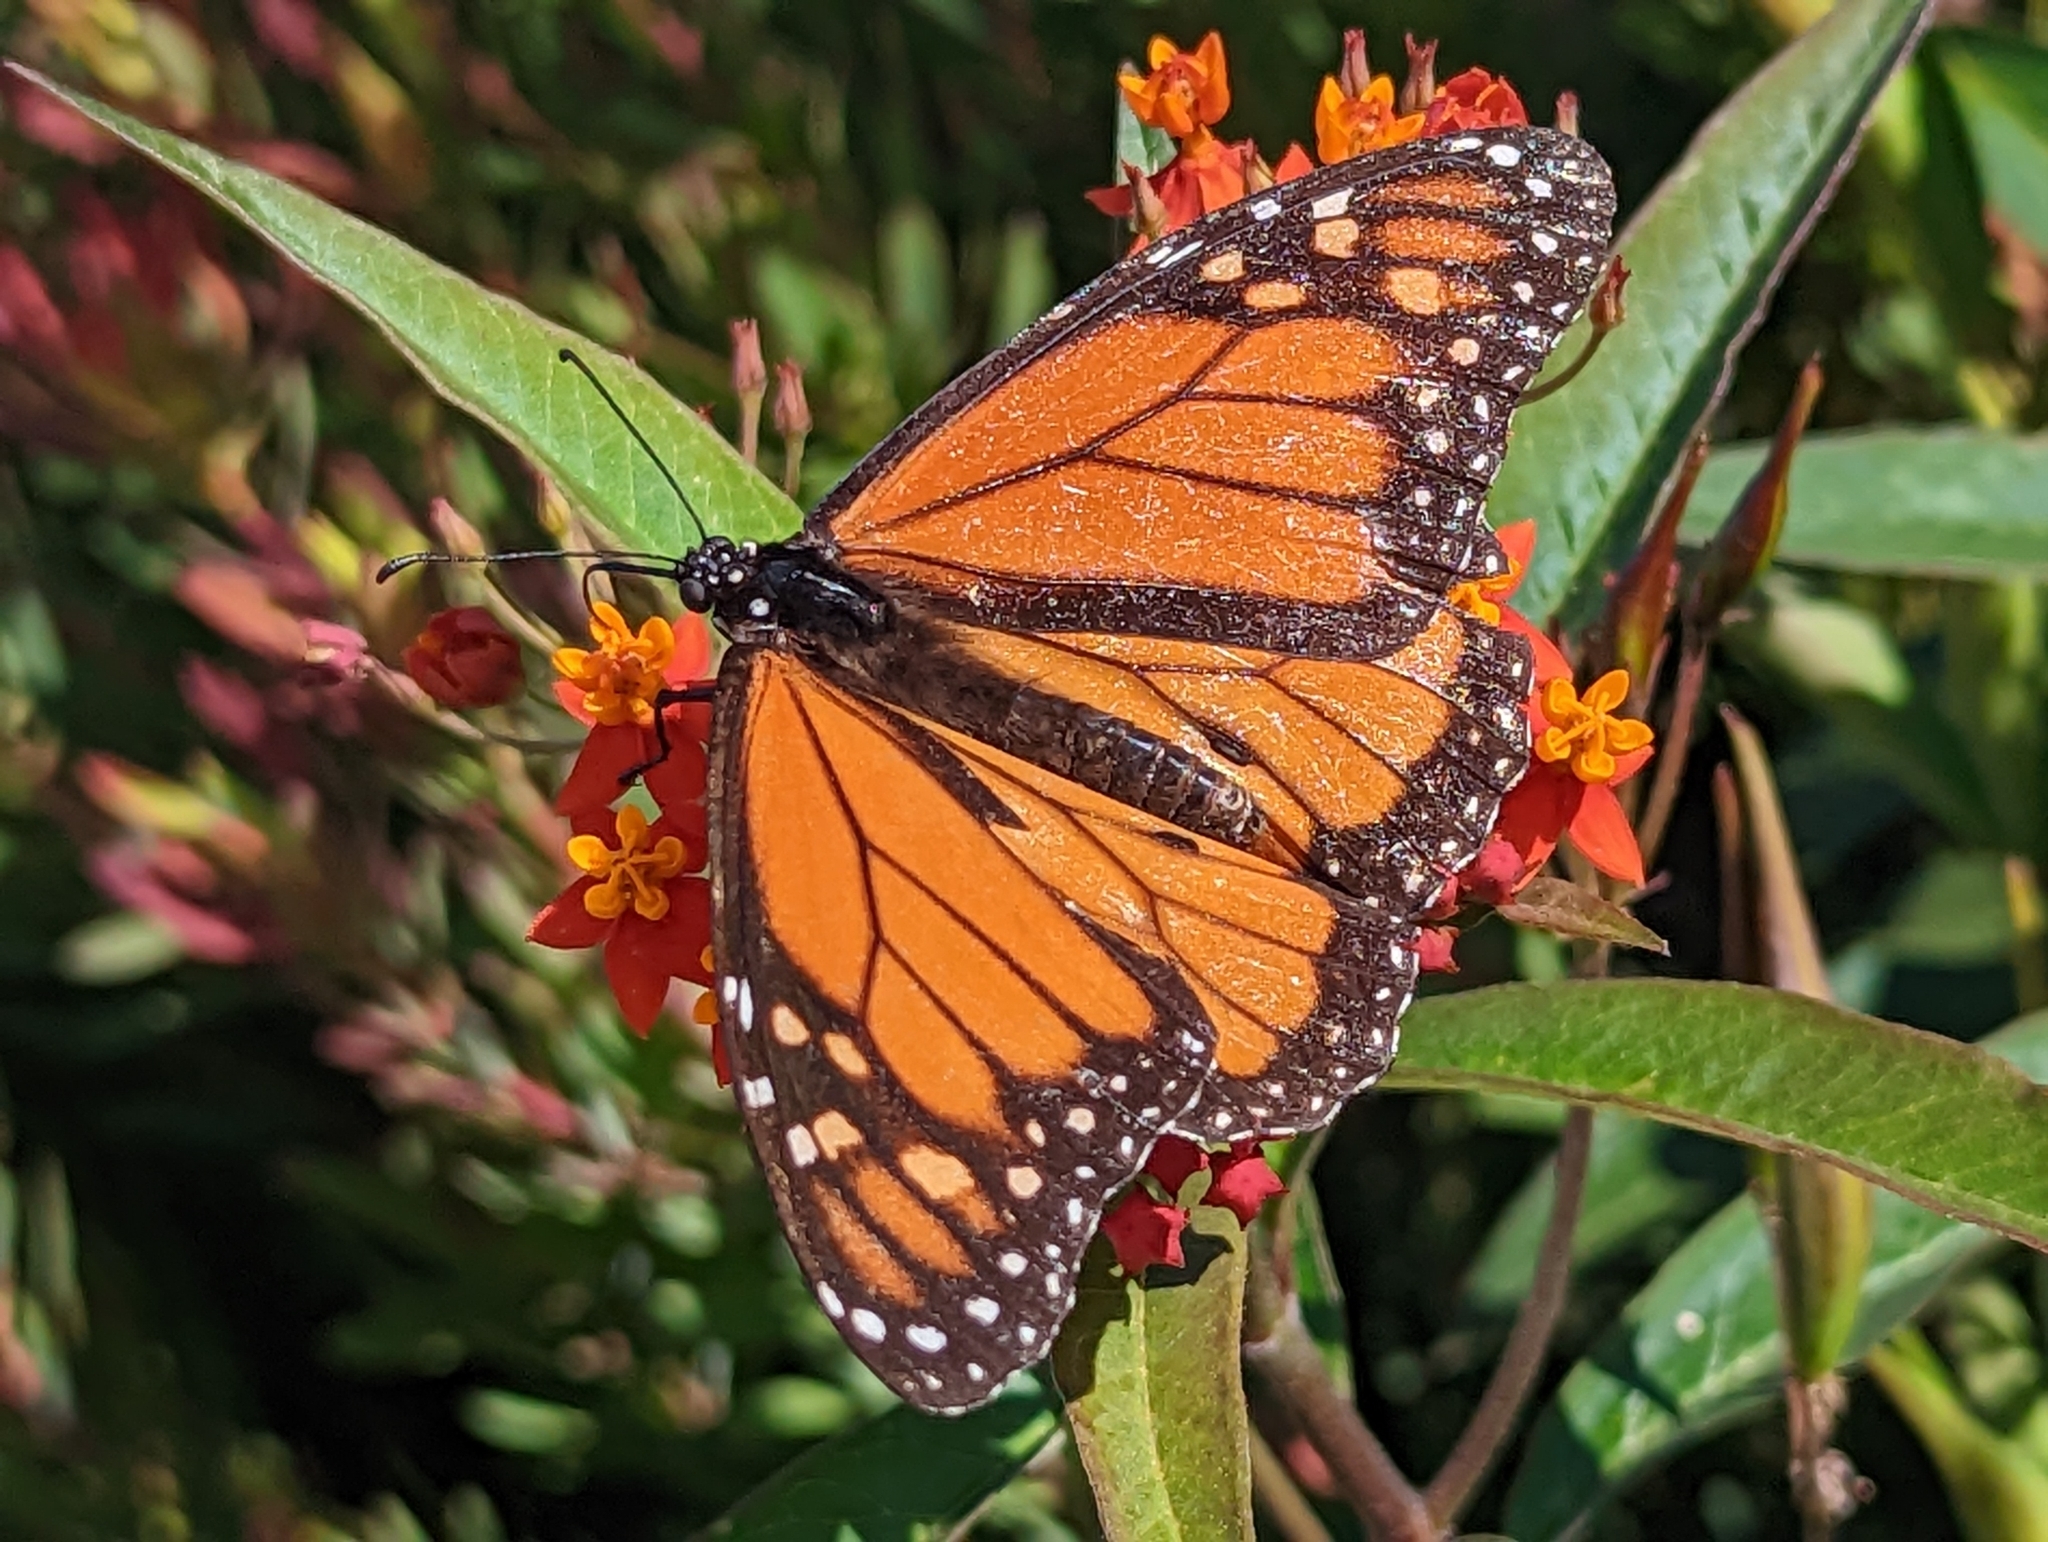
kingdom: Animalia
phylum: Arthropoda
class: Insecta
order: Lepidoptera
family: Nymphalidae
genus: Danaus
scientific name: Danaus plexippus
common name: Monarch
